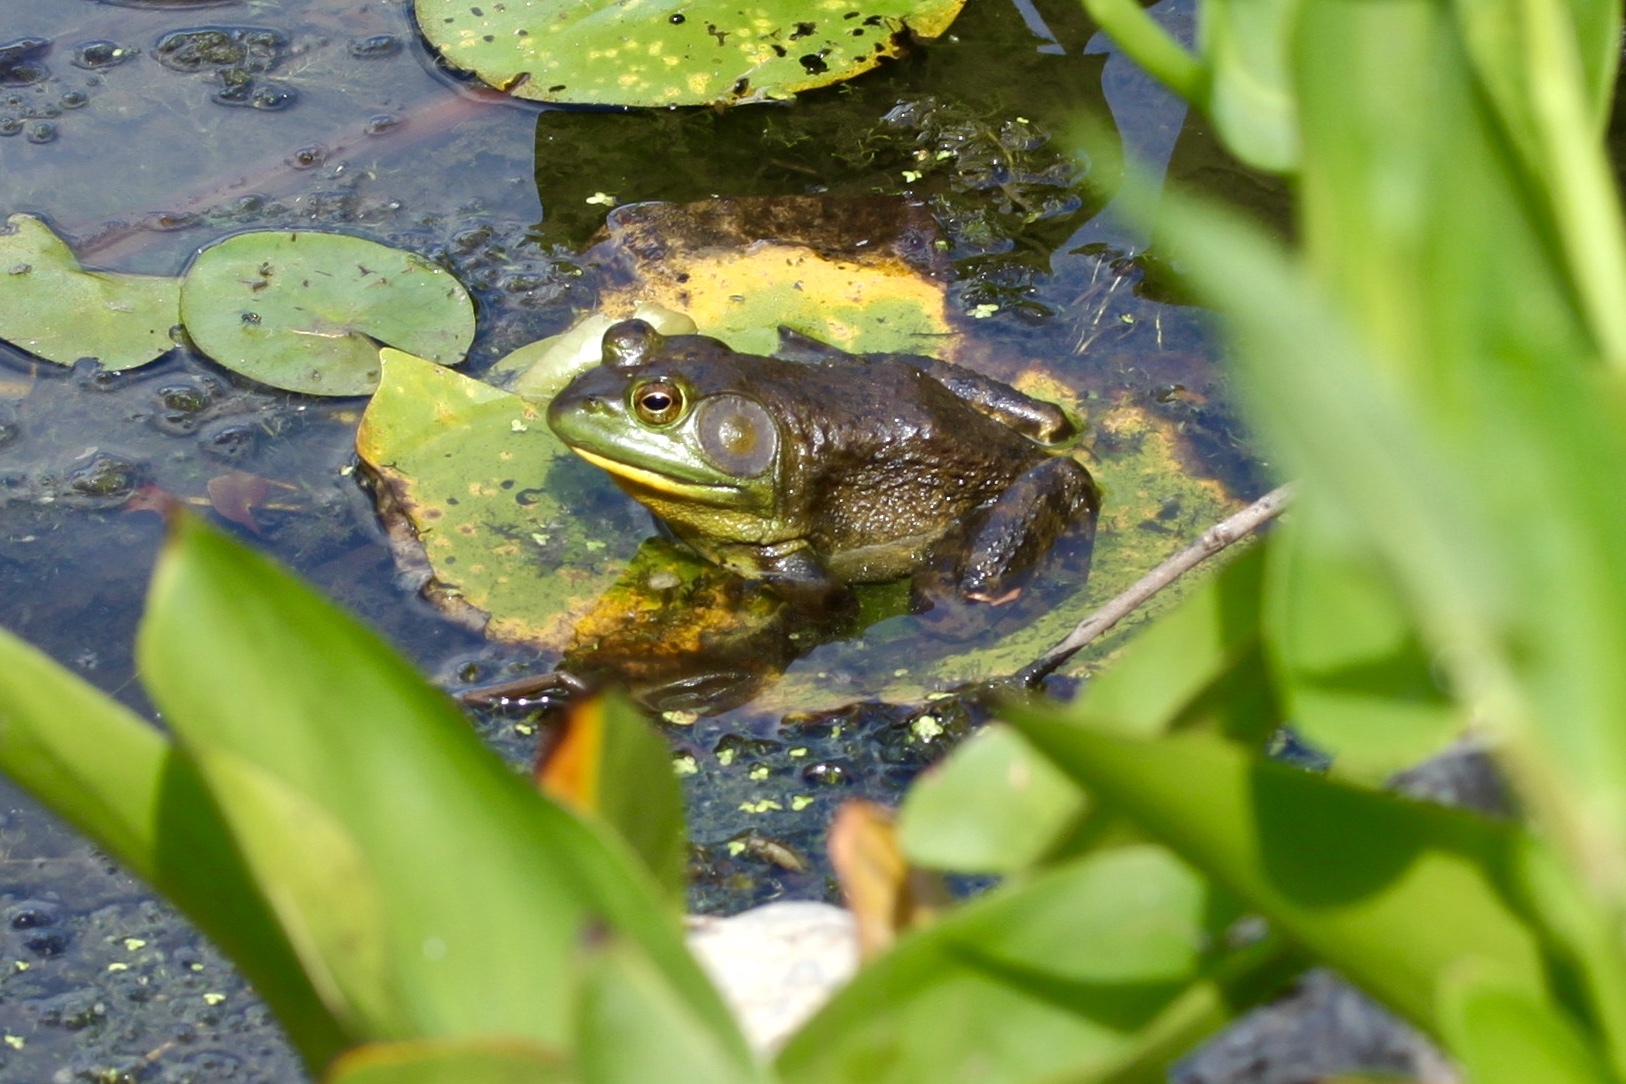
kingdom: Animalia
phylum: Chordata
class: Amphibia
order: Anura
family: Ranidae
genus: Lithobates
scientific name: Lithobates catesbeianus
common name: American bullfrog
